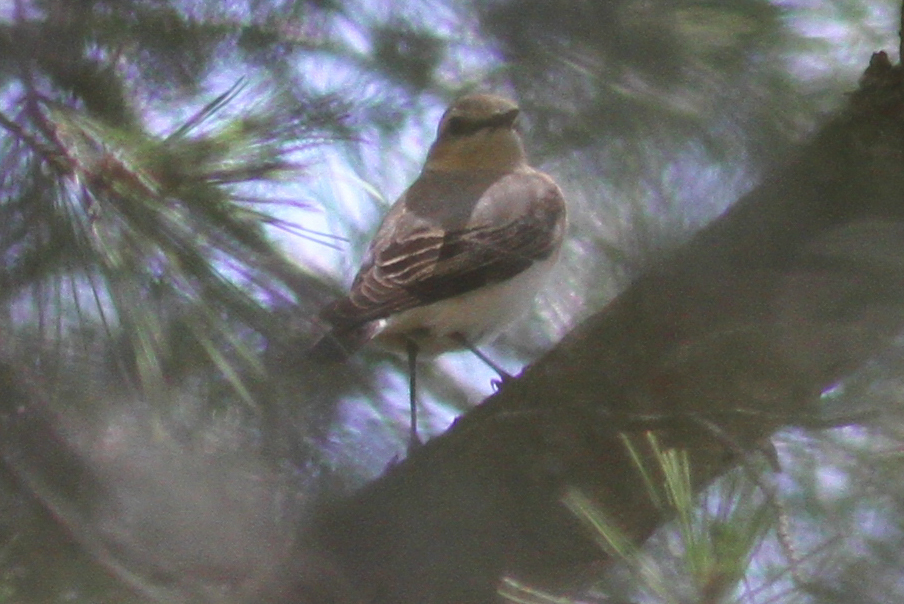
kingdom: Animalia
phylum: Chordata
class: Aves
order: Passeriformes
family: Muscicapidae
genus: Oenanthe
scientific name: Oenanthe oenanthe
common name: Northern wheatear
